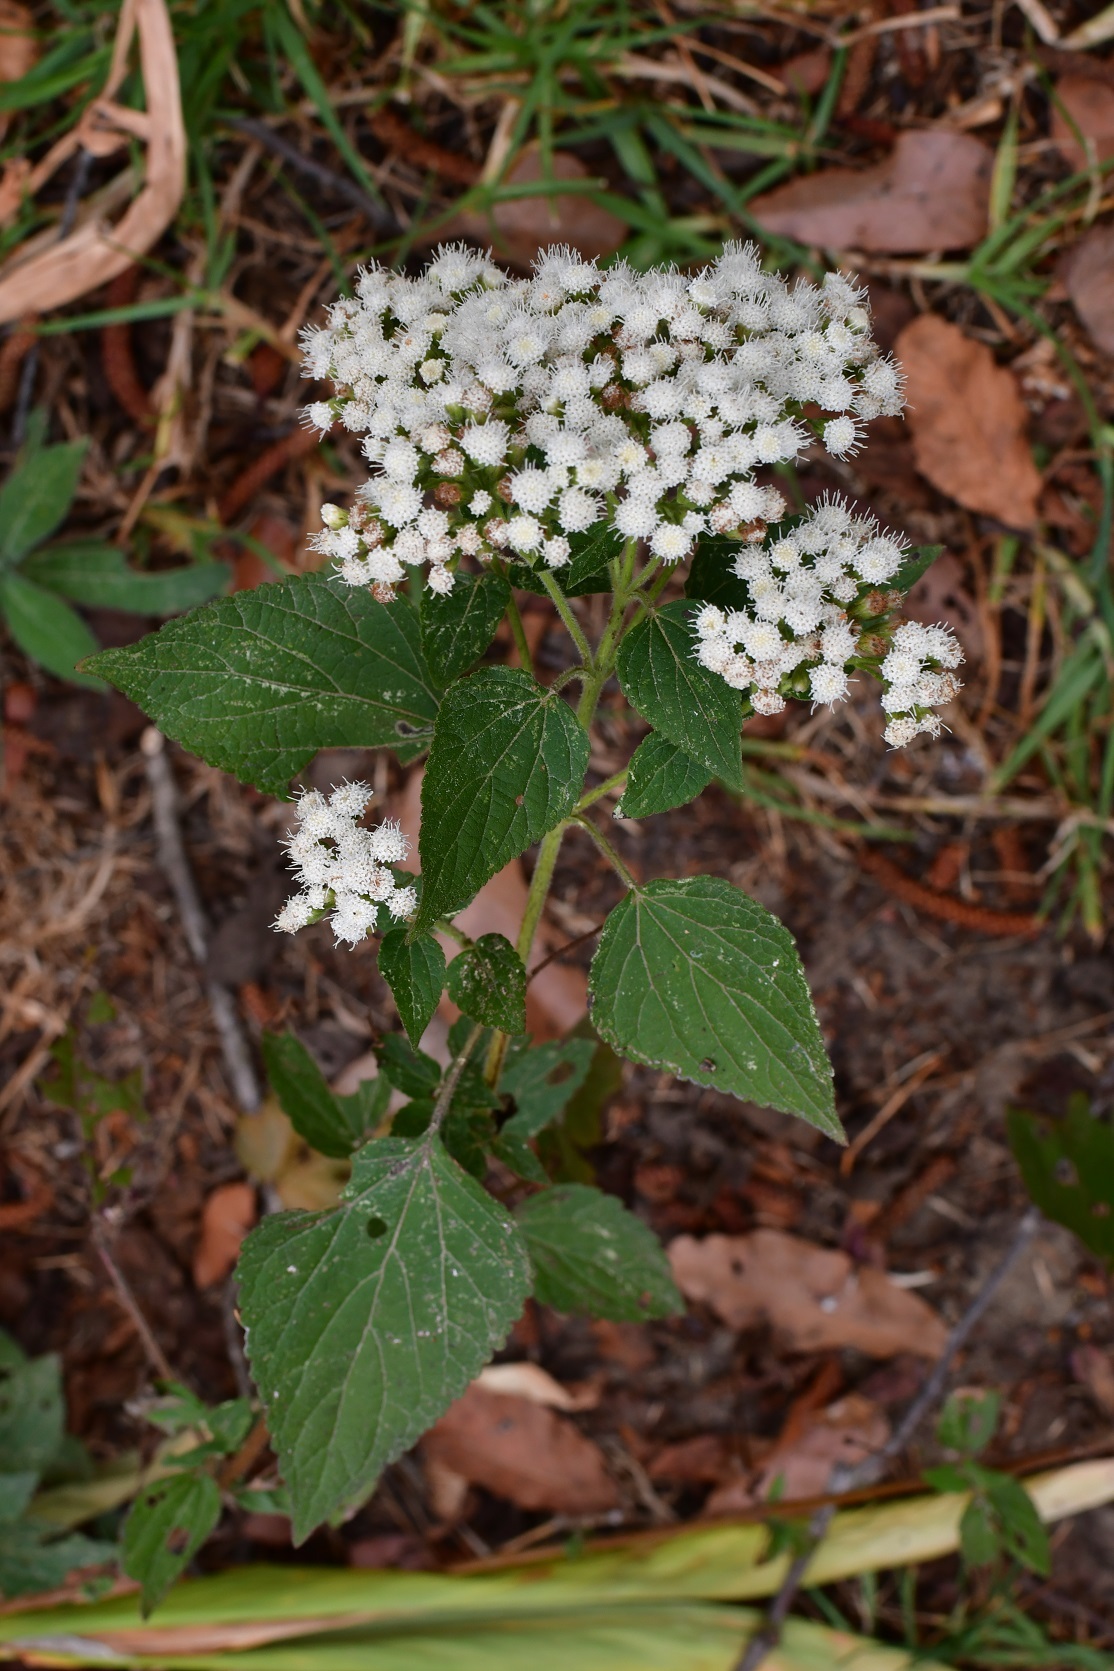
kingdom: Plantae
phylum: Tracheophyta
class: Magnoliopsida
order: Asterales
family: Asteraceae
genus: Ageratina
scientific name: Ageratina vernalis
